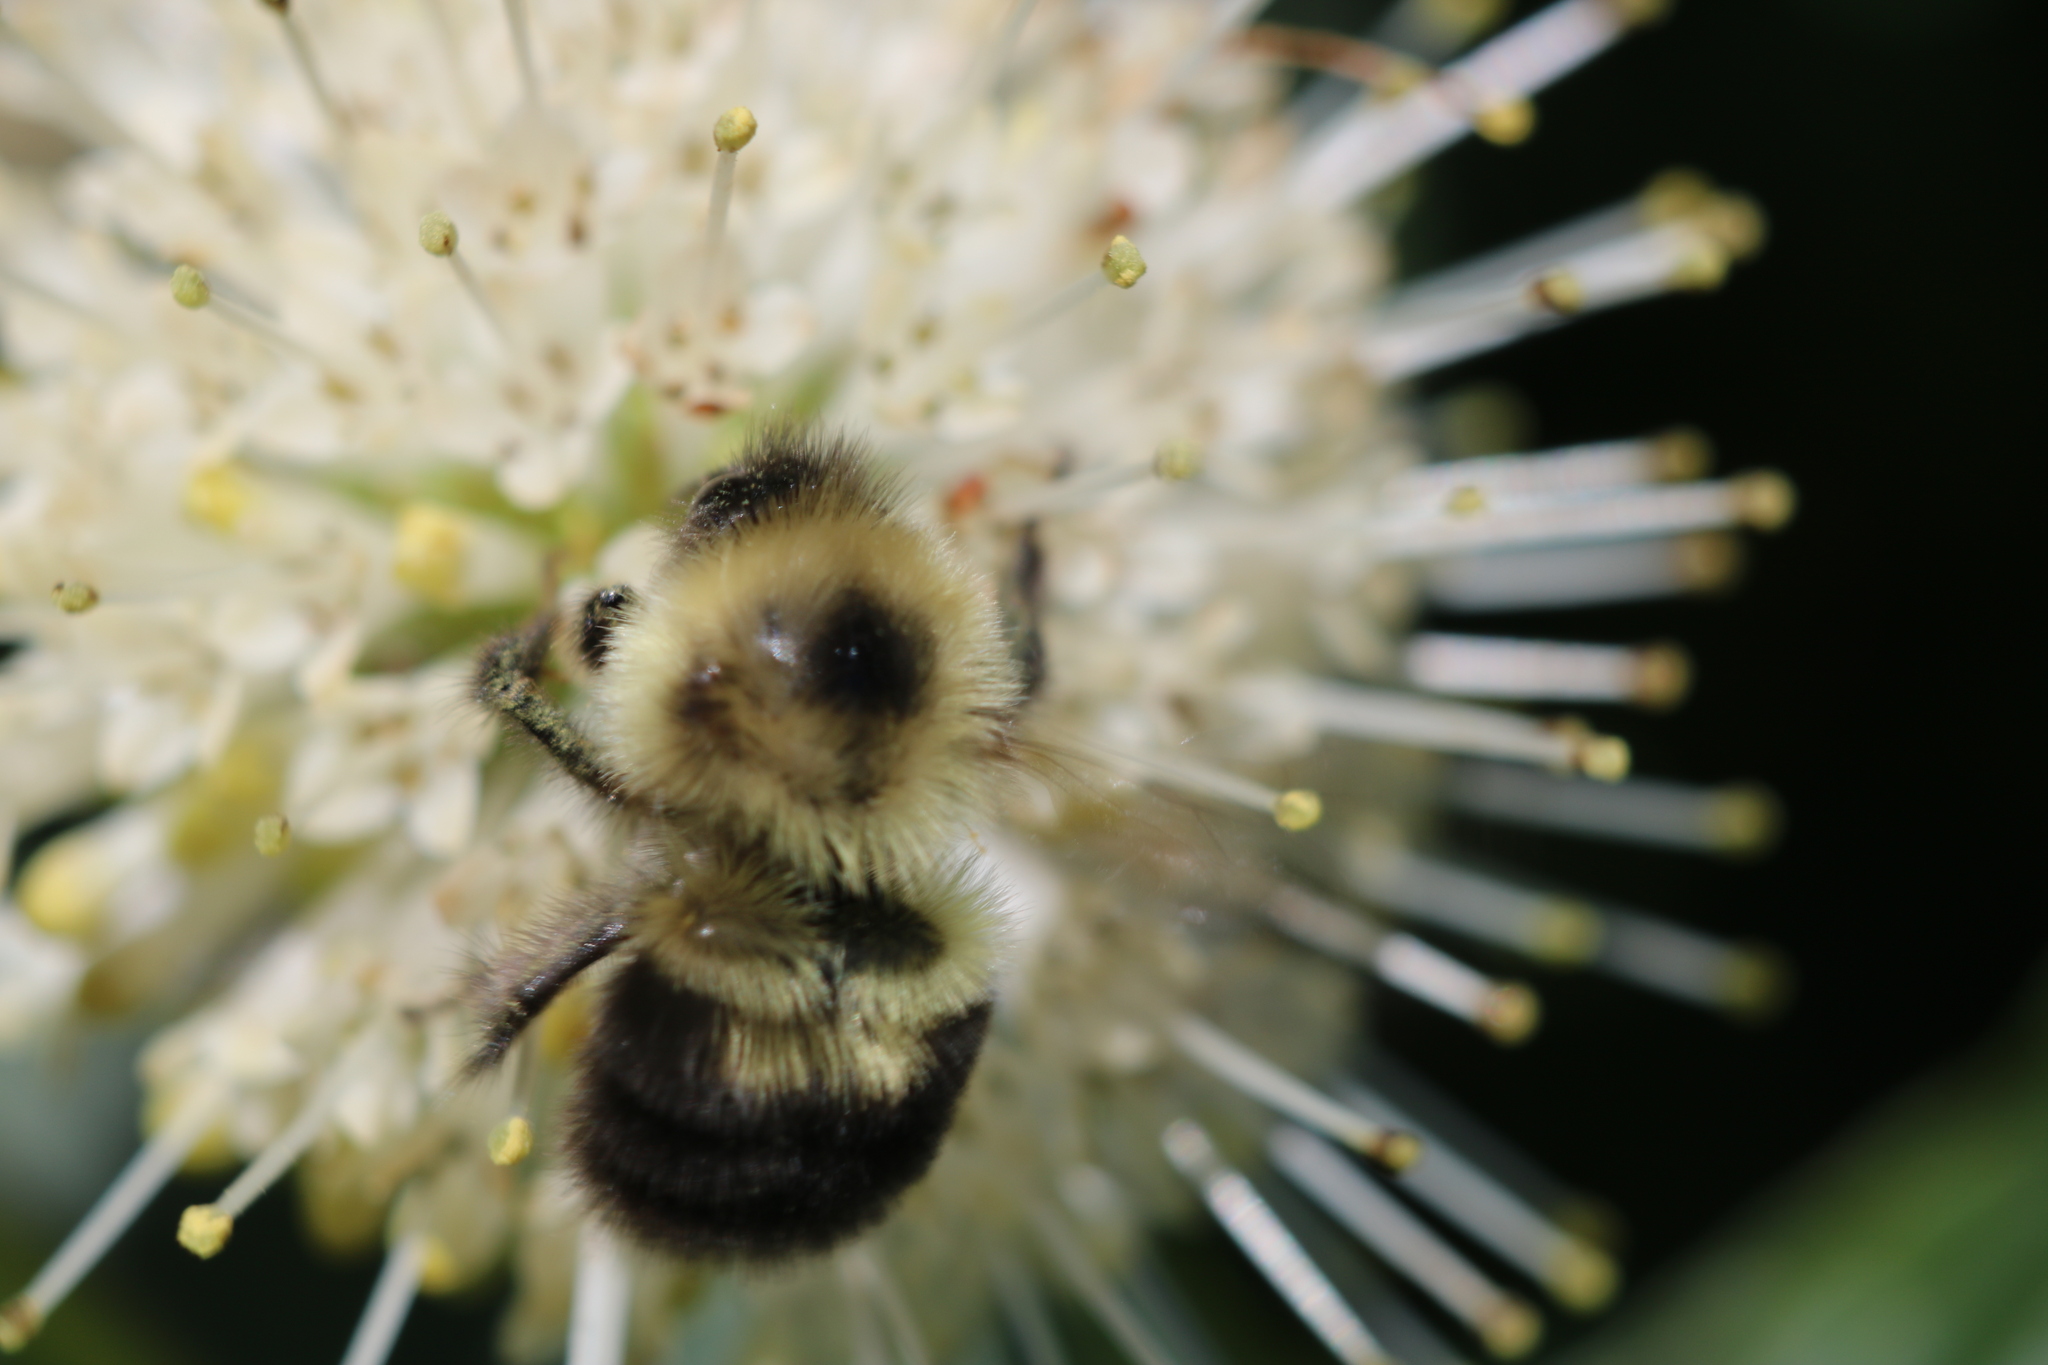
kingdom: Animalia
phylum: Arthropoda
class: Insecta
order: Hymenoptera
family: Apidae
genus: Bombus
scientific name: Bombus bimaculatus
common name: Two-spotted bumble bee
